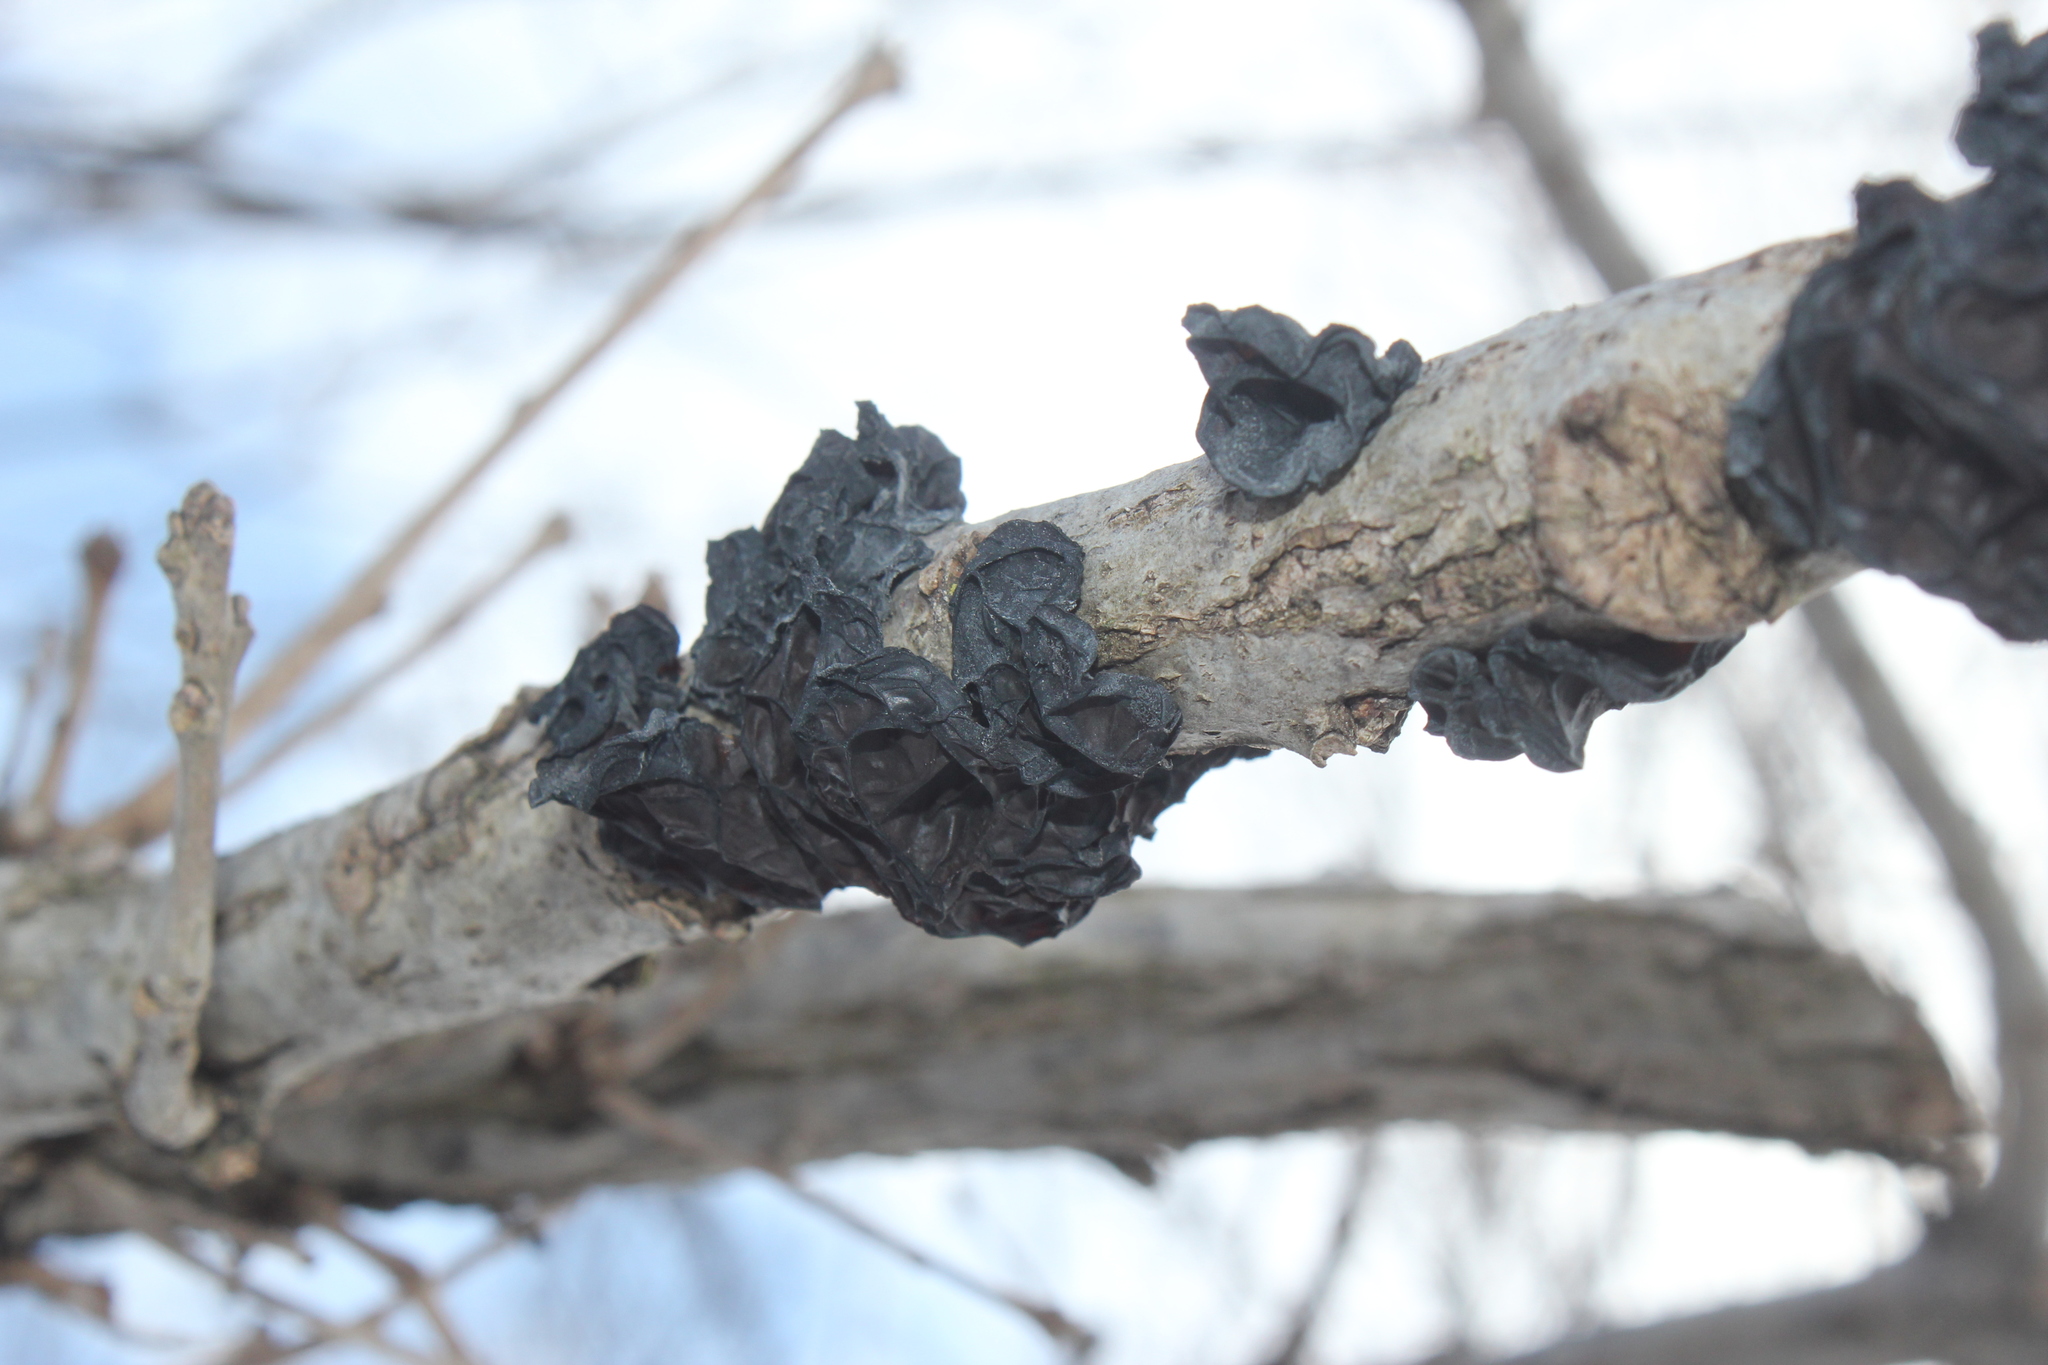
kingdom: Fungi
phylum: Basidiomycota
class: Agaricomycetes
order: Auriculariales
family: Auriculariaceae
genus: Exidia
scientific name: Exidia
